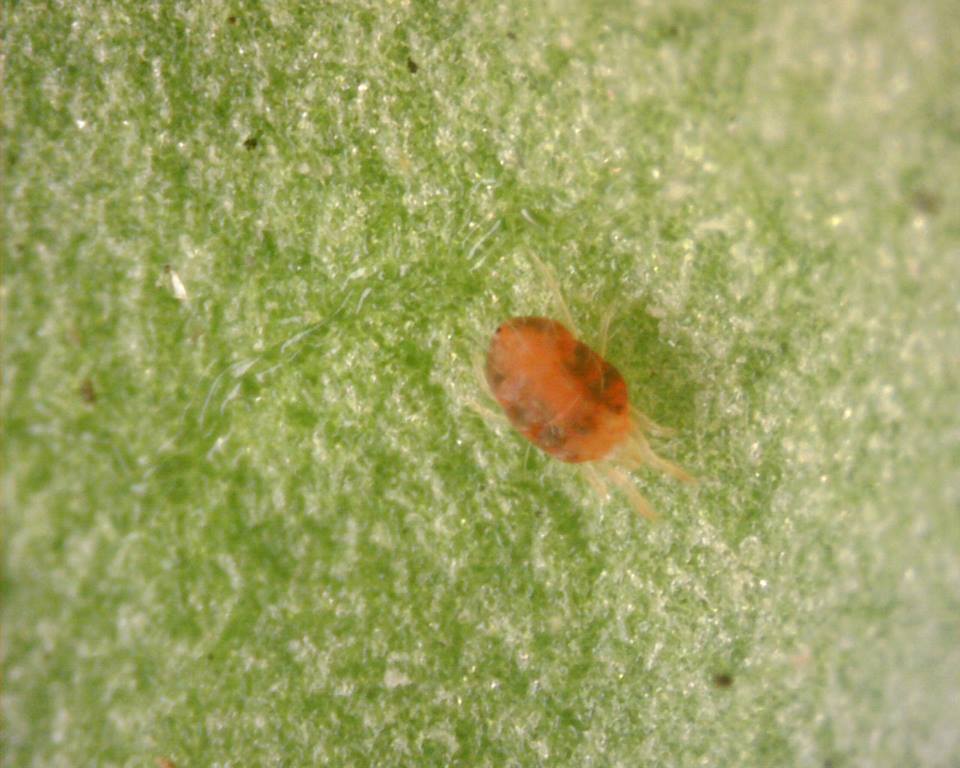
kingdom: Animalia
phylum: Arthropoda
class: Arachnida
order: Trombidiformes
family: Tetranychidae
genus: Tetranychus
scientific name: Tetranychus urticae
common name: Carmine spider mite
